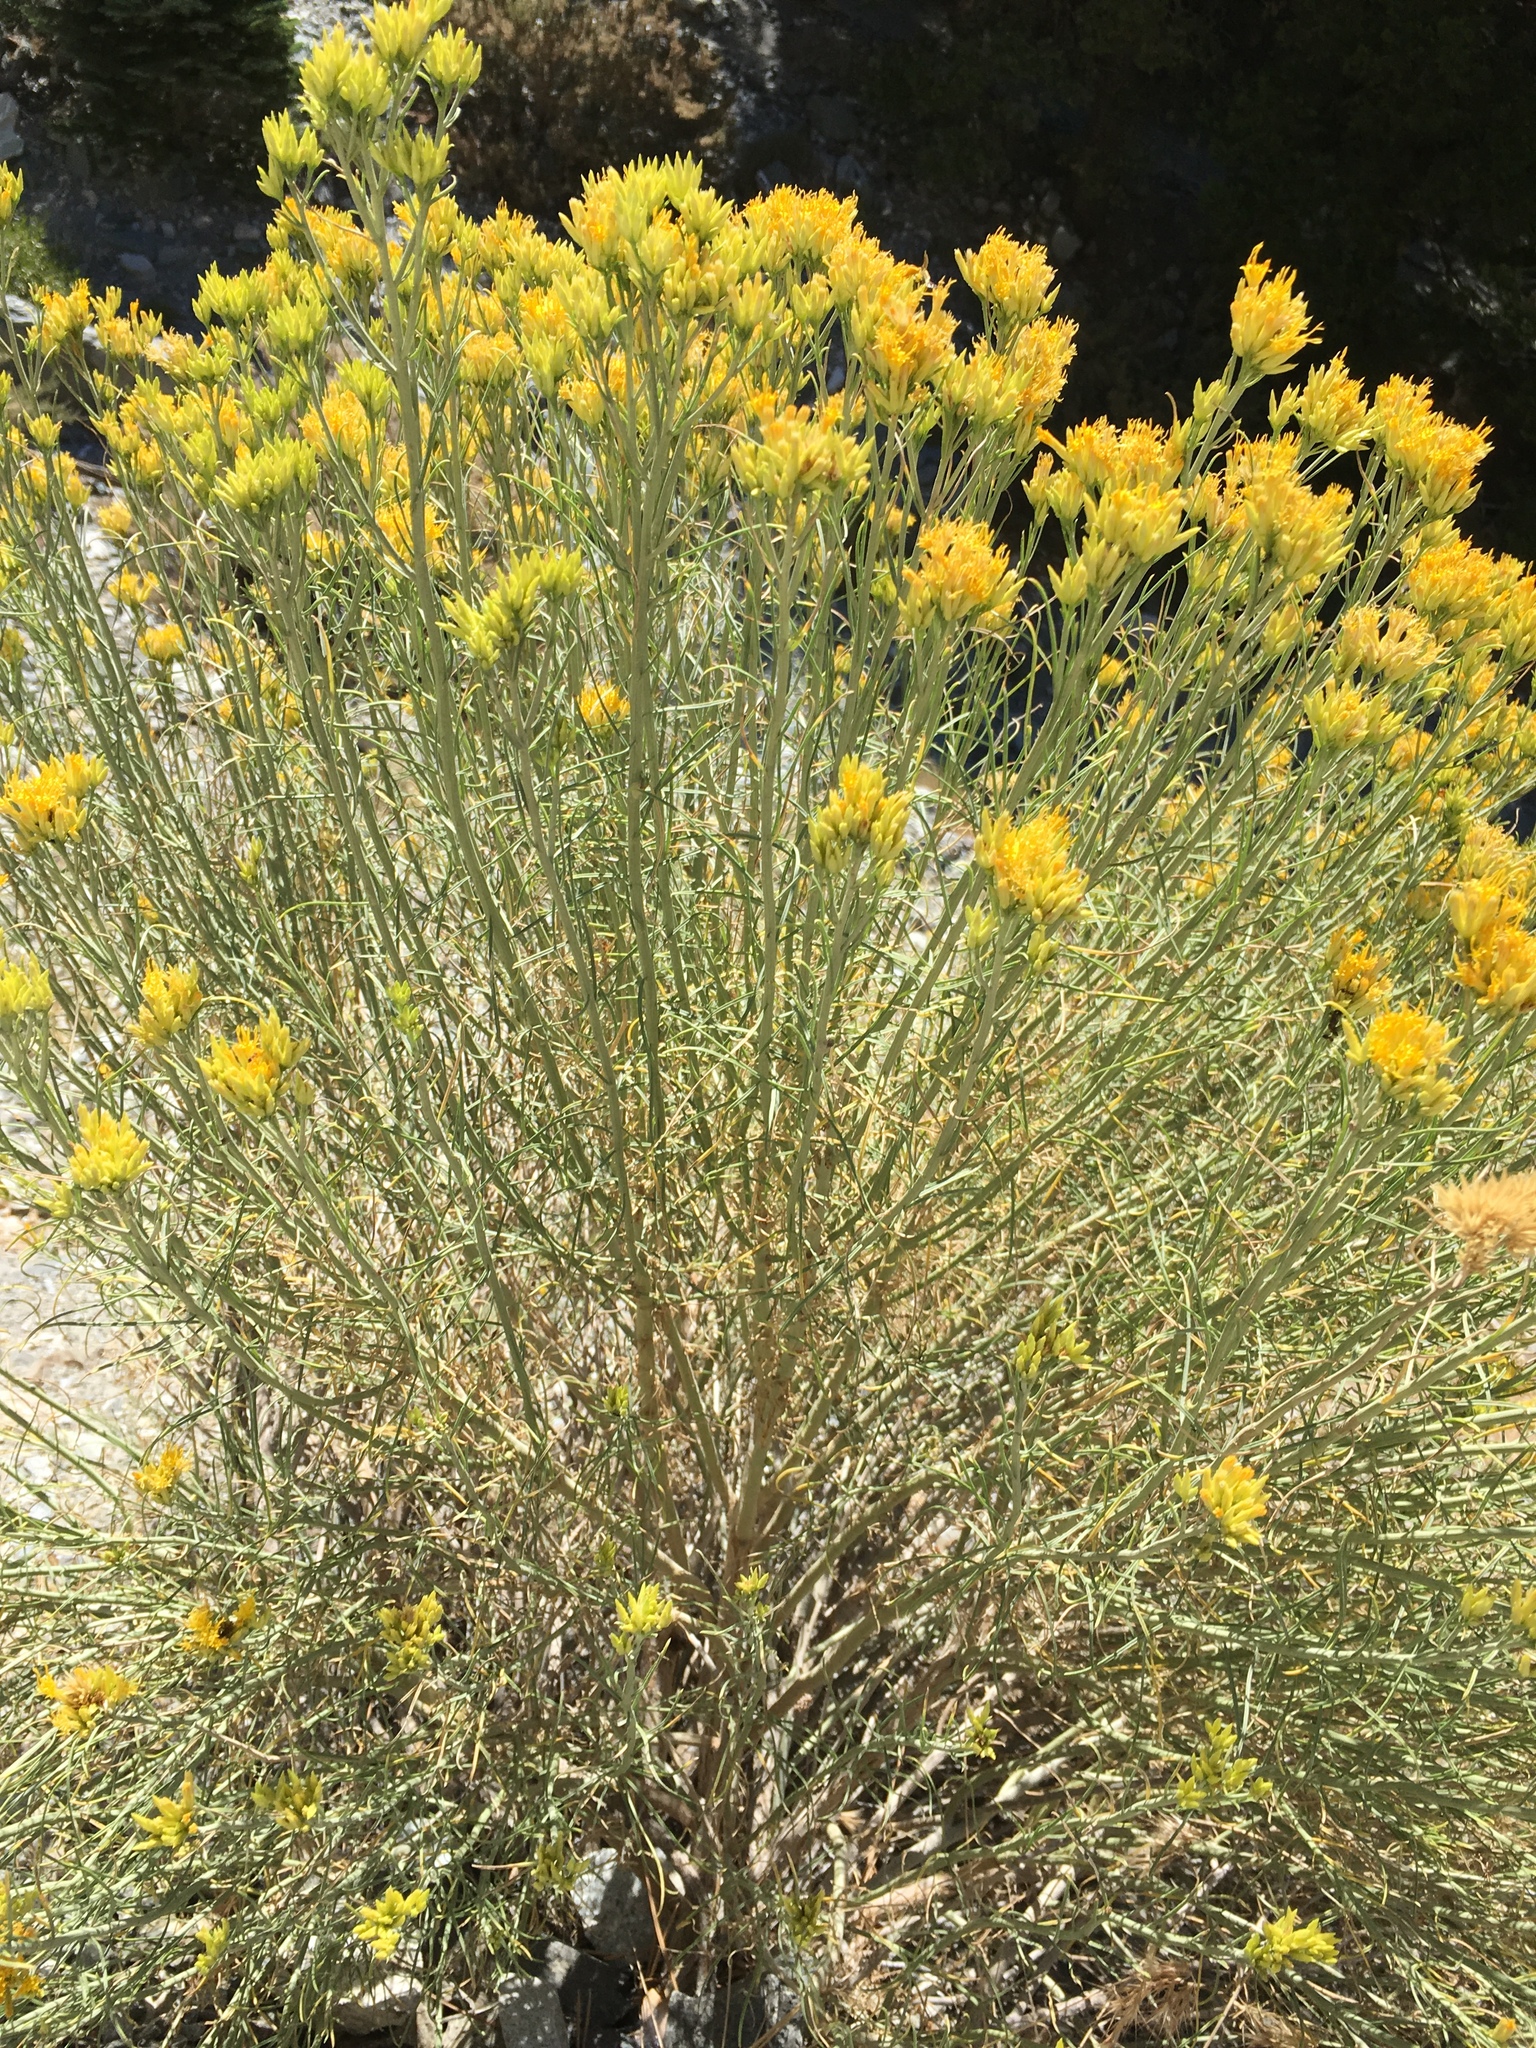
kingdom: Plantae
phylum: Tracheophyta
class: Magnoliopsida
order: Asterales
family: Asteraceae
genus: Ericameria
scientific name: Ericameria nauseosa
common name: Rubber rabbitbrush
